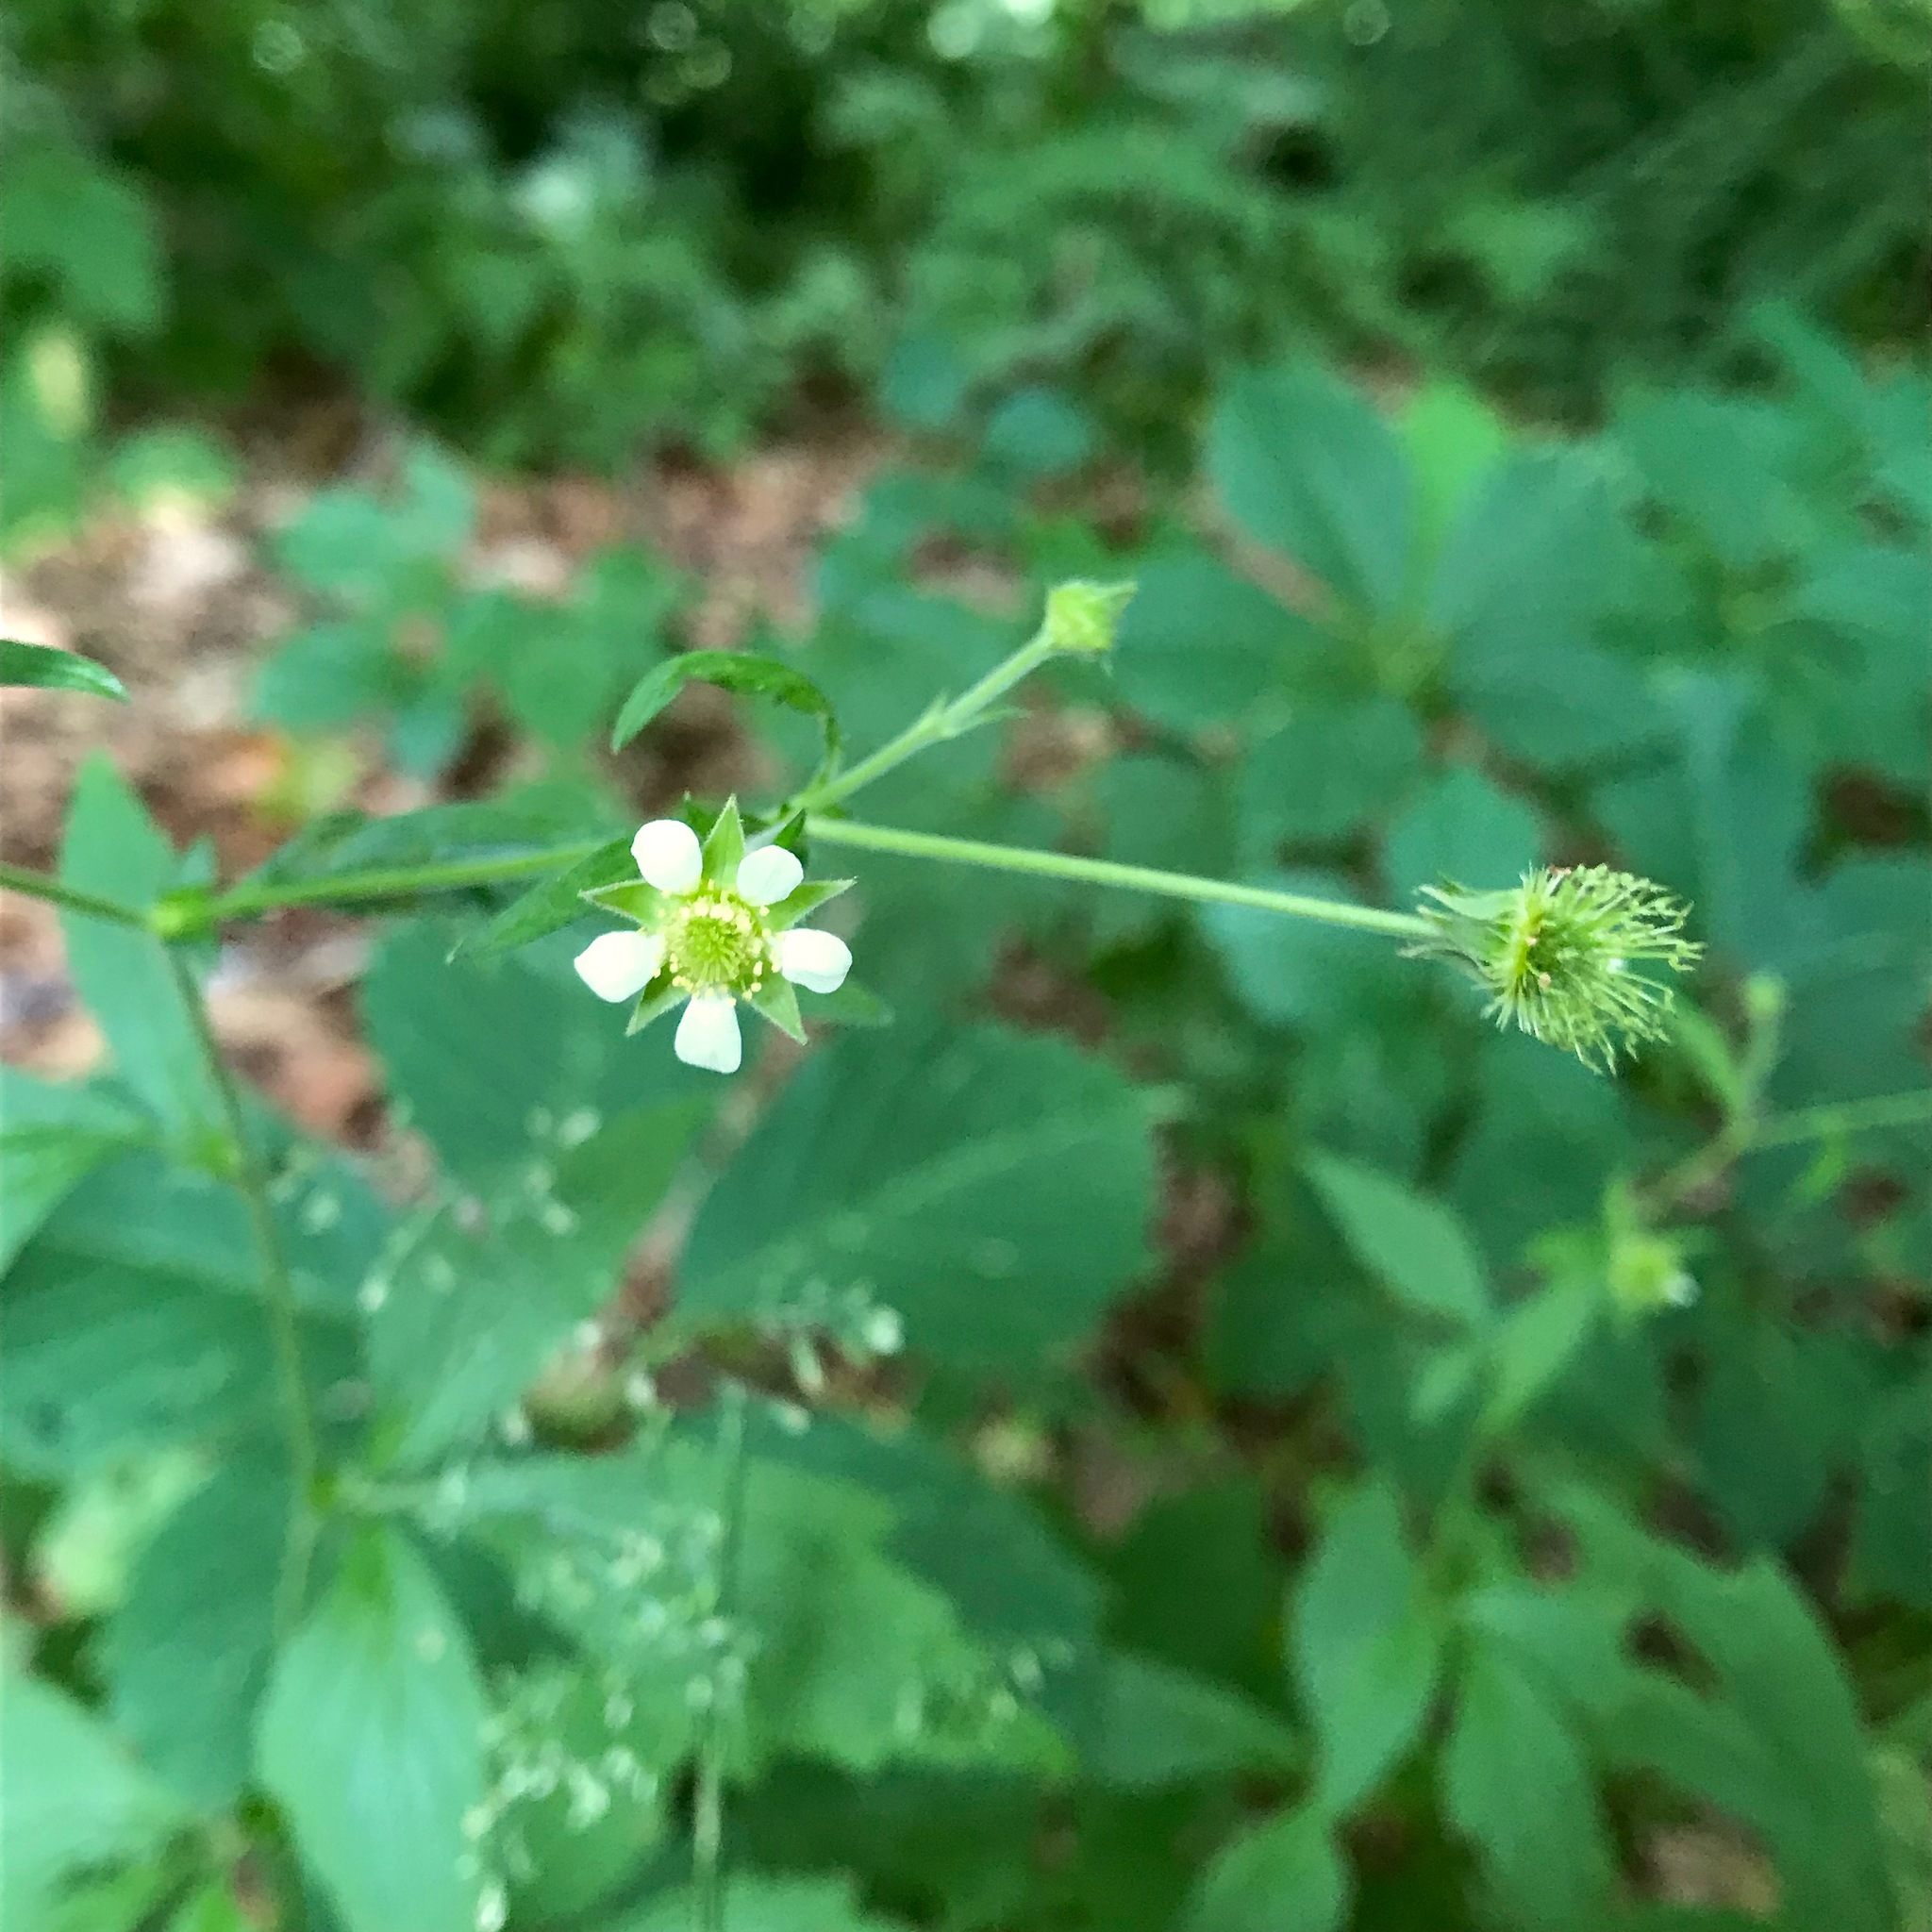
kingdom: Plantae
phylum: Tracheophyta
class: Magnoliopsida
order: Rosales
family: Rosaceae
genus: Geum
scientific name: Geum canadense
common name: White avens
